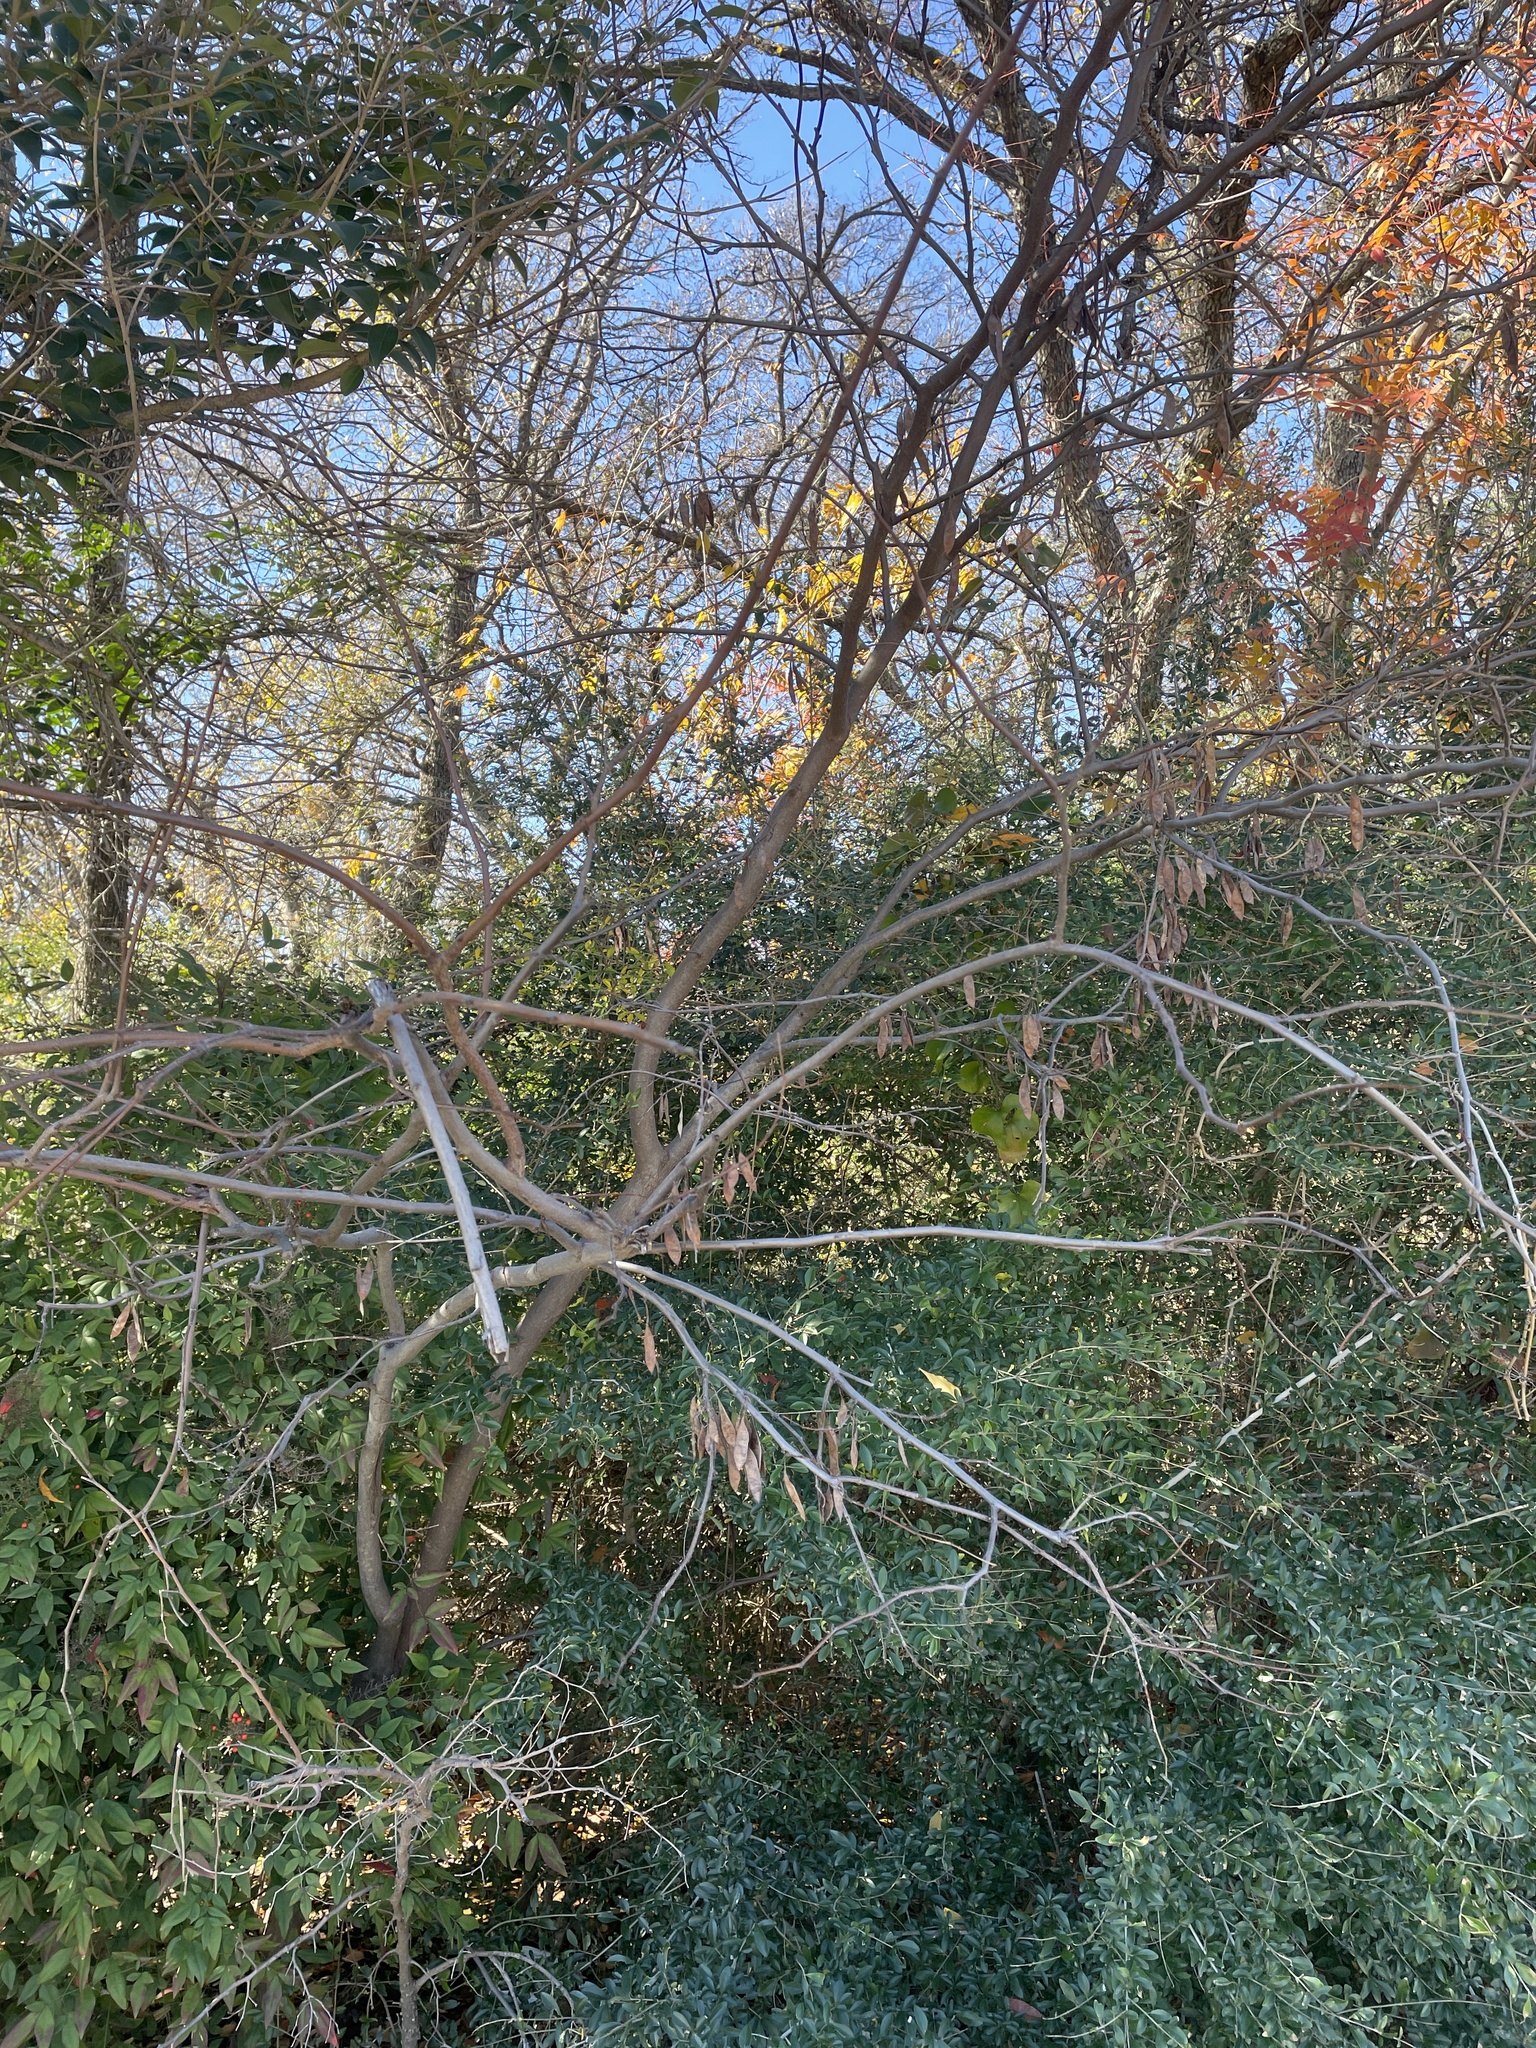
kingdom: Plantae
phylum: Tracheophyta
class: Magnoliopsida
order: Fabales
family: Fabaceae
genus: Cercis
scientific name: Cercis canadensis
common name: Eastern redbud
